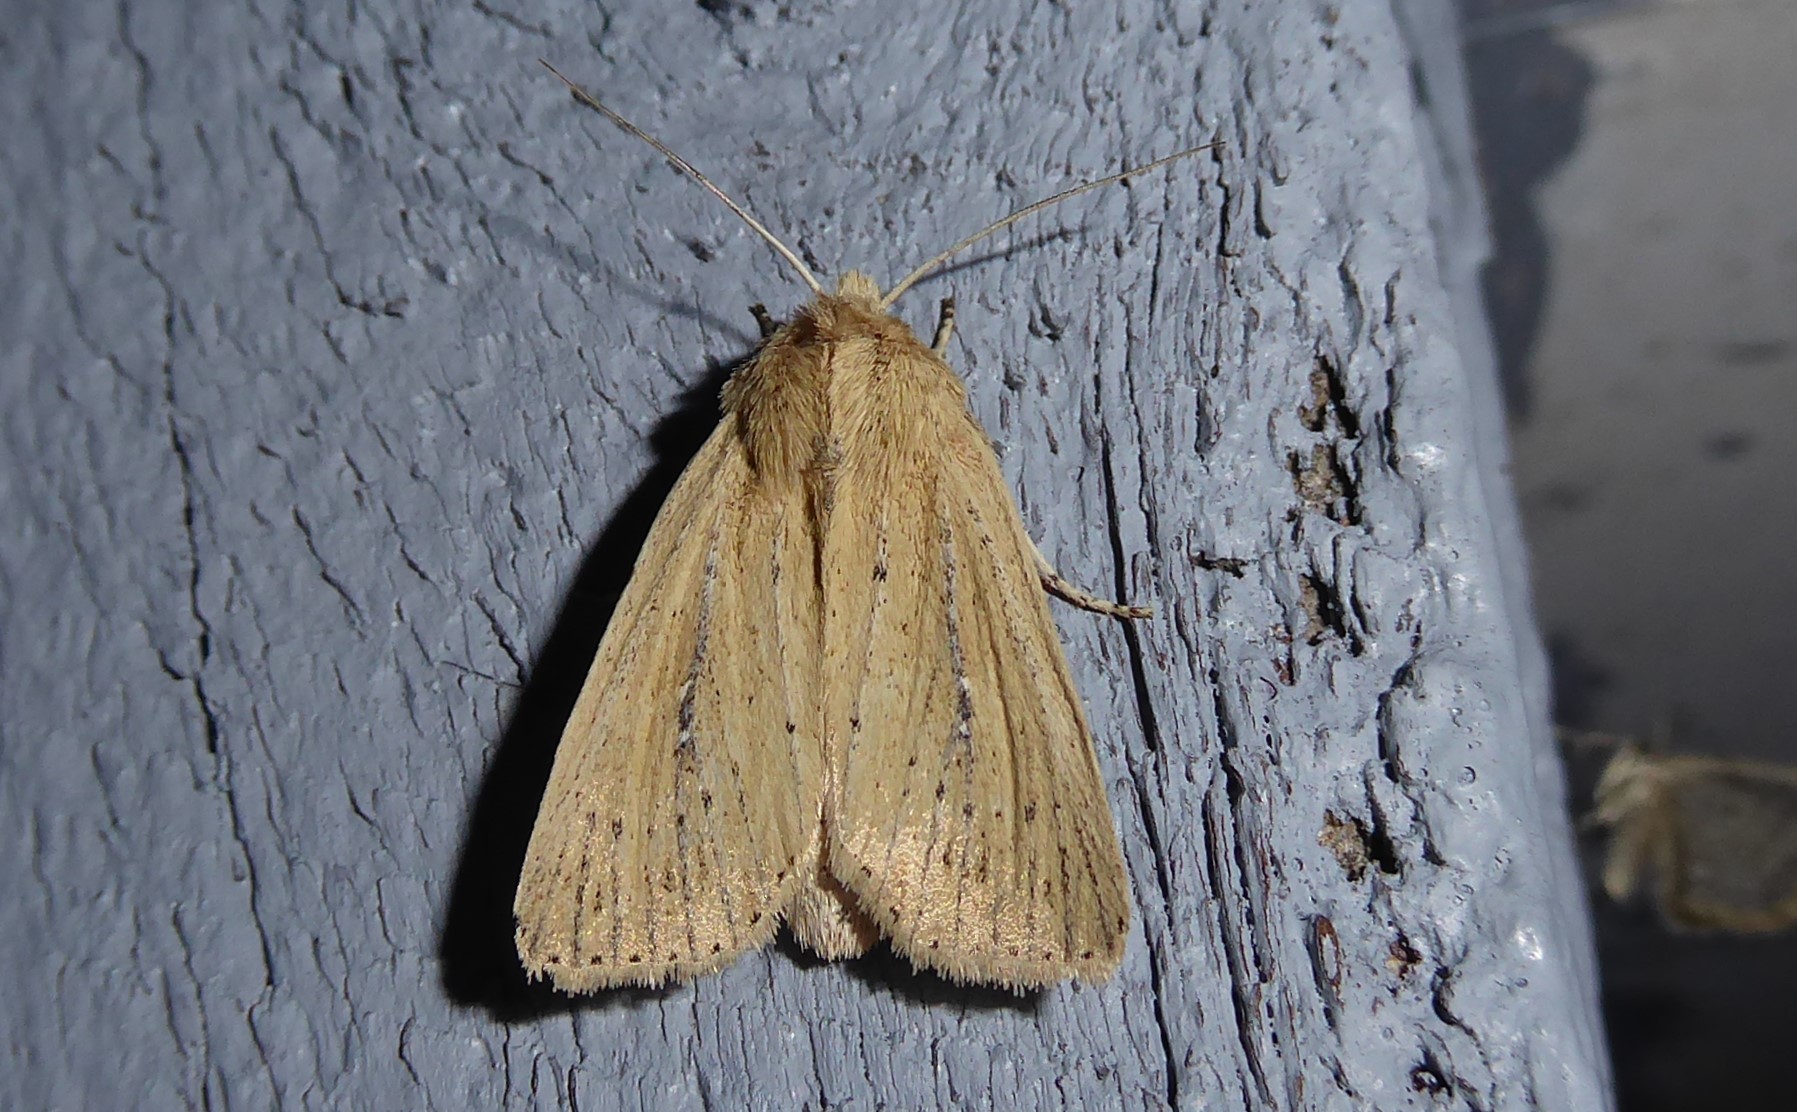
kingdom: Animalia
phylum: Arthropoda
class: Insecta
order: Lepidoptera
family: Noctuidae
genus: Ichneutica
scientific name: Ichneutica
